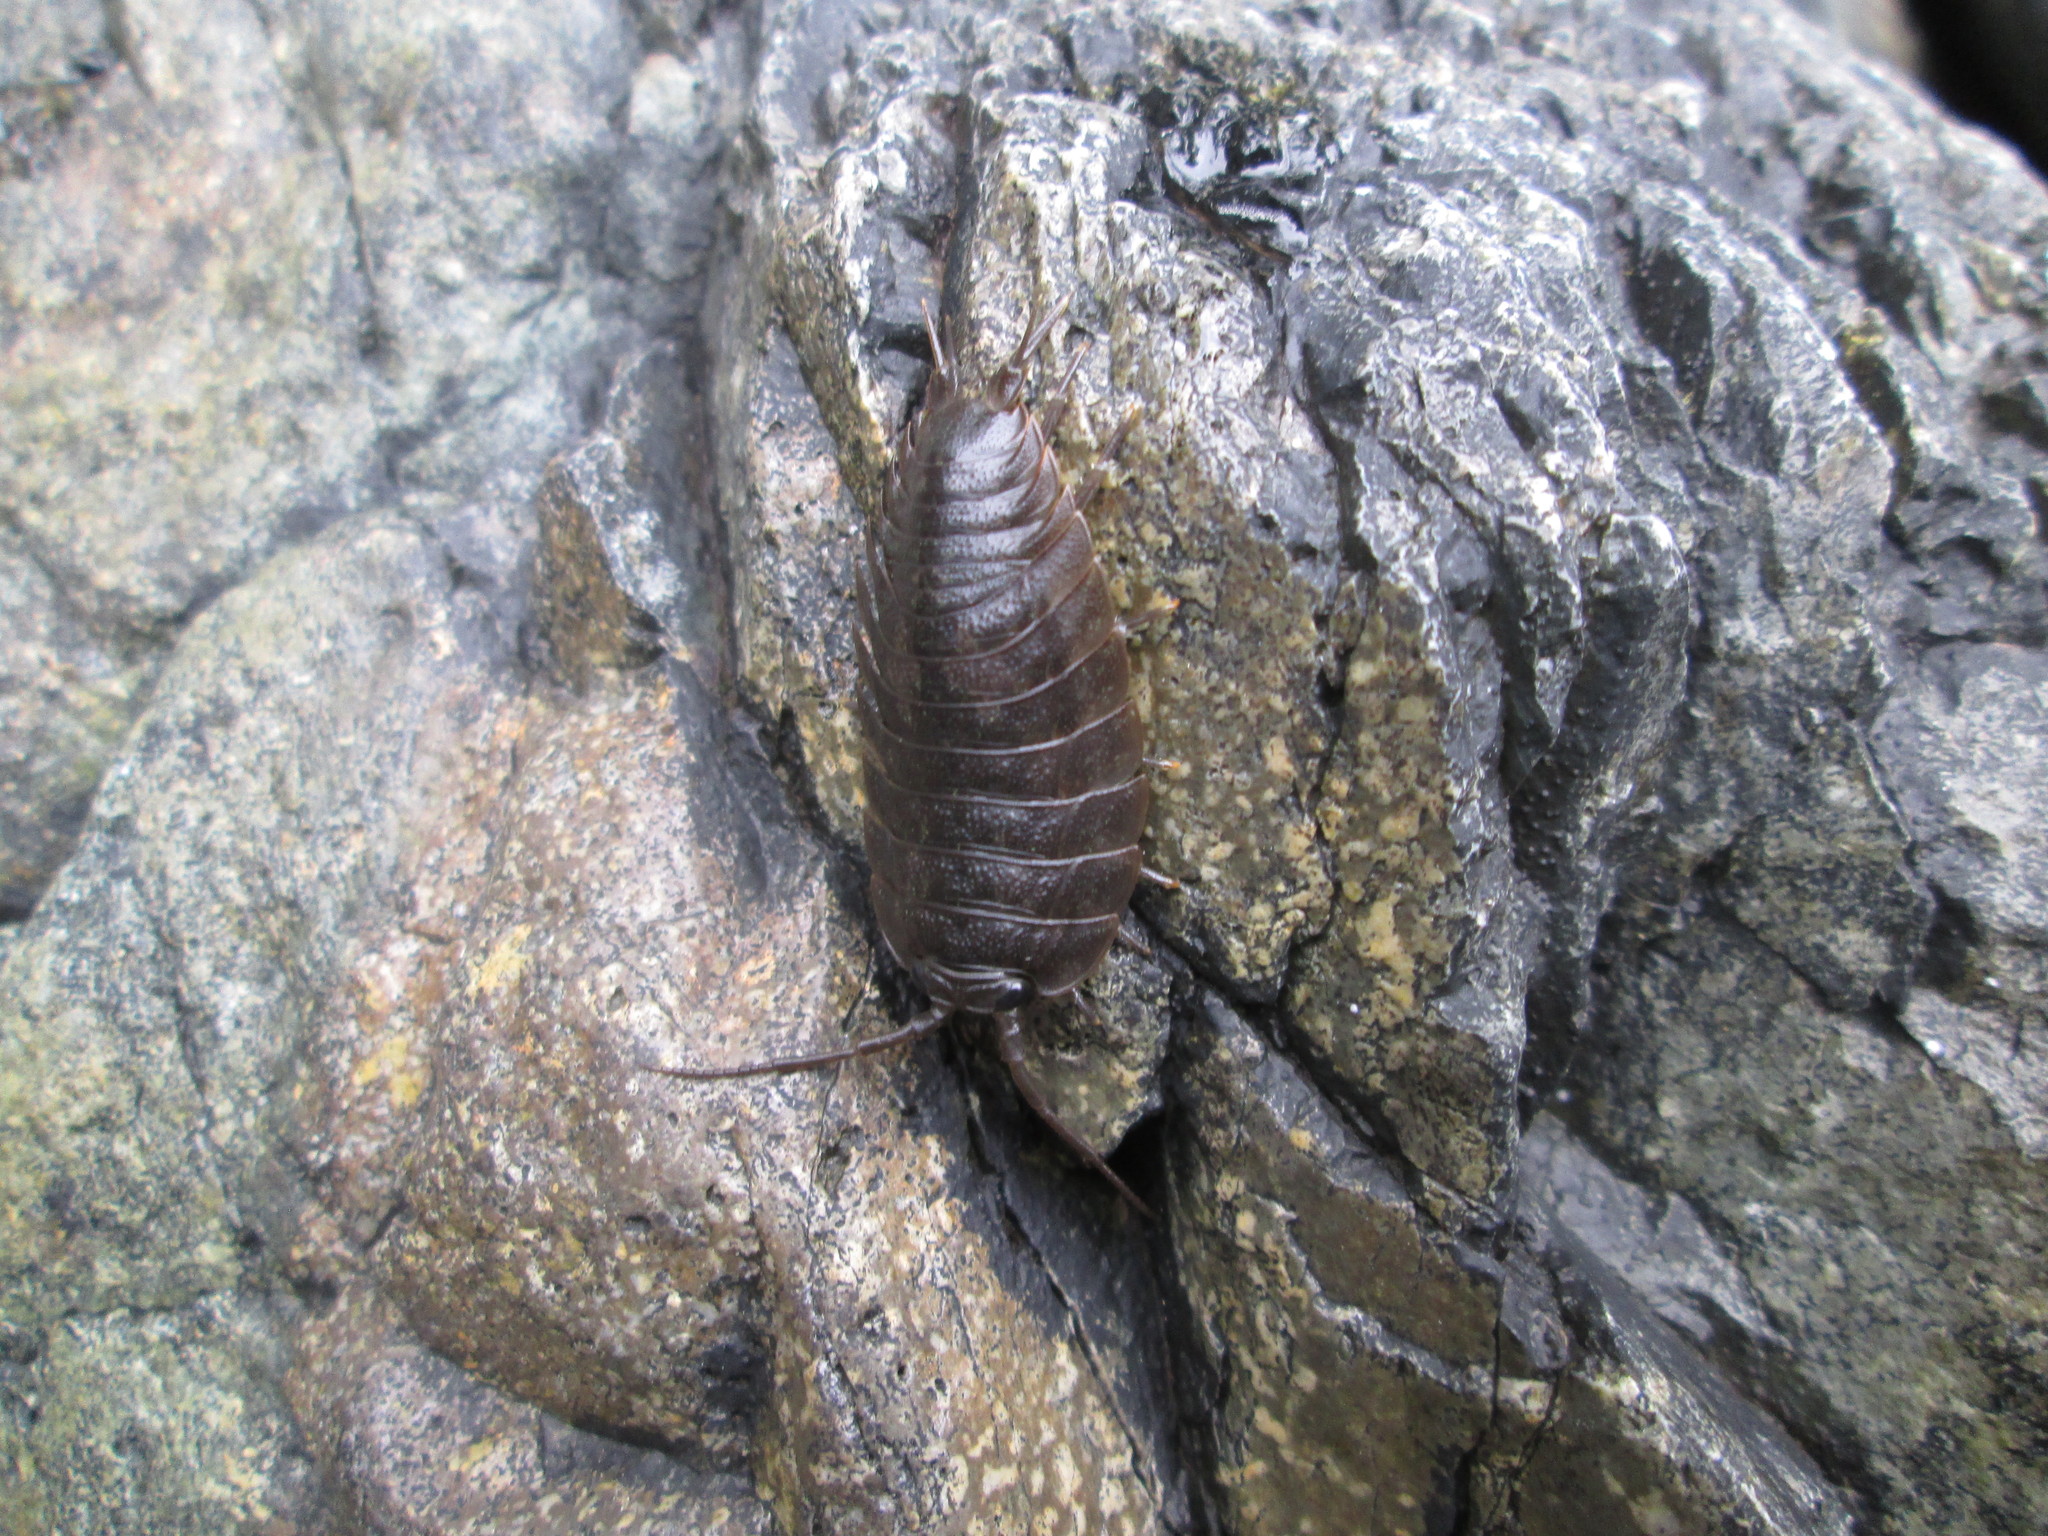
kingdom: Animalia
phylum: Arthropoda
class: Malacostraca
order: Isopoda
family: Ligiidae
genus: Ligia
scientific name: Ligia pallasii
